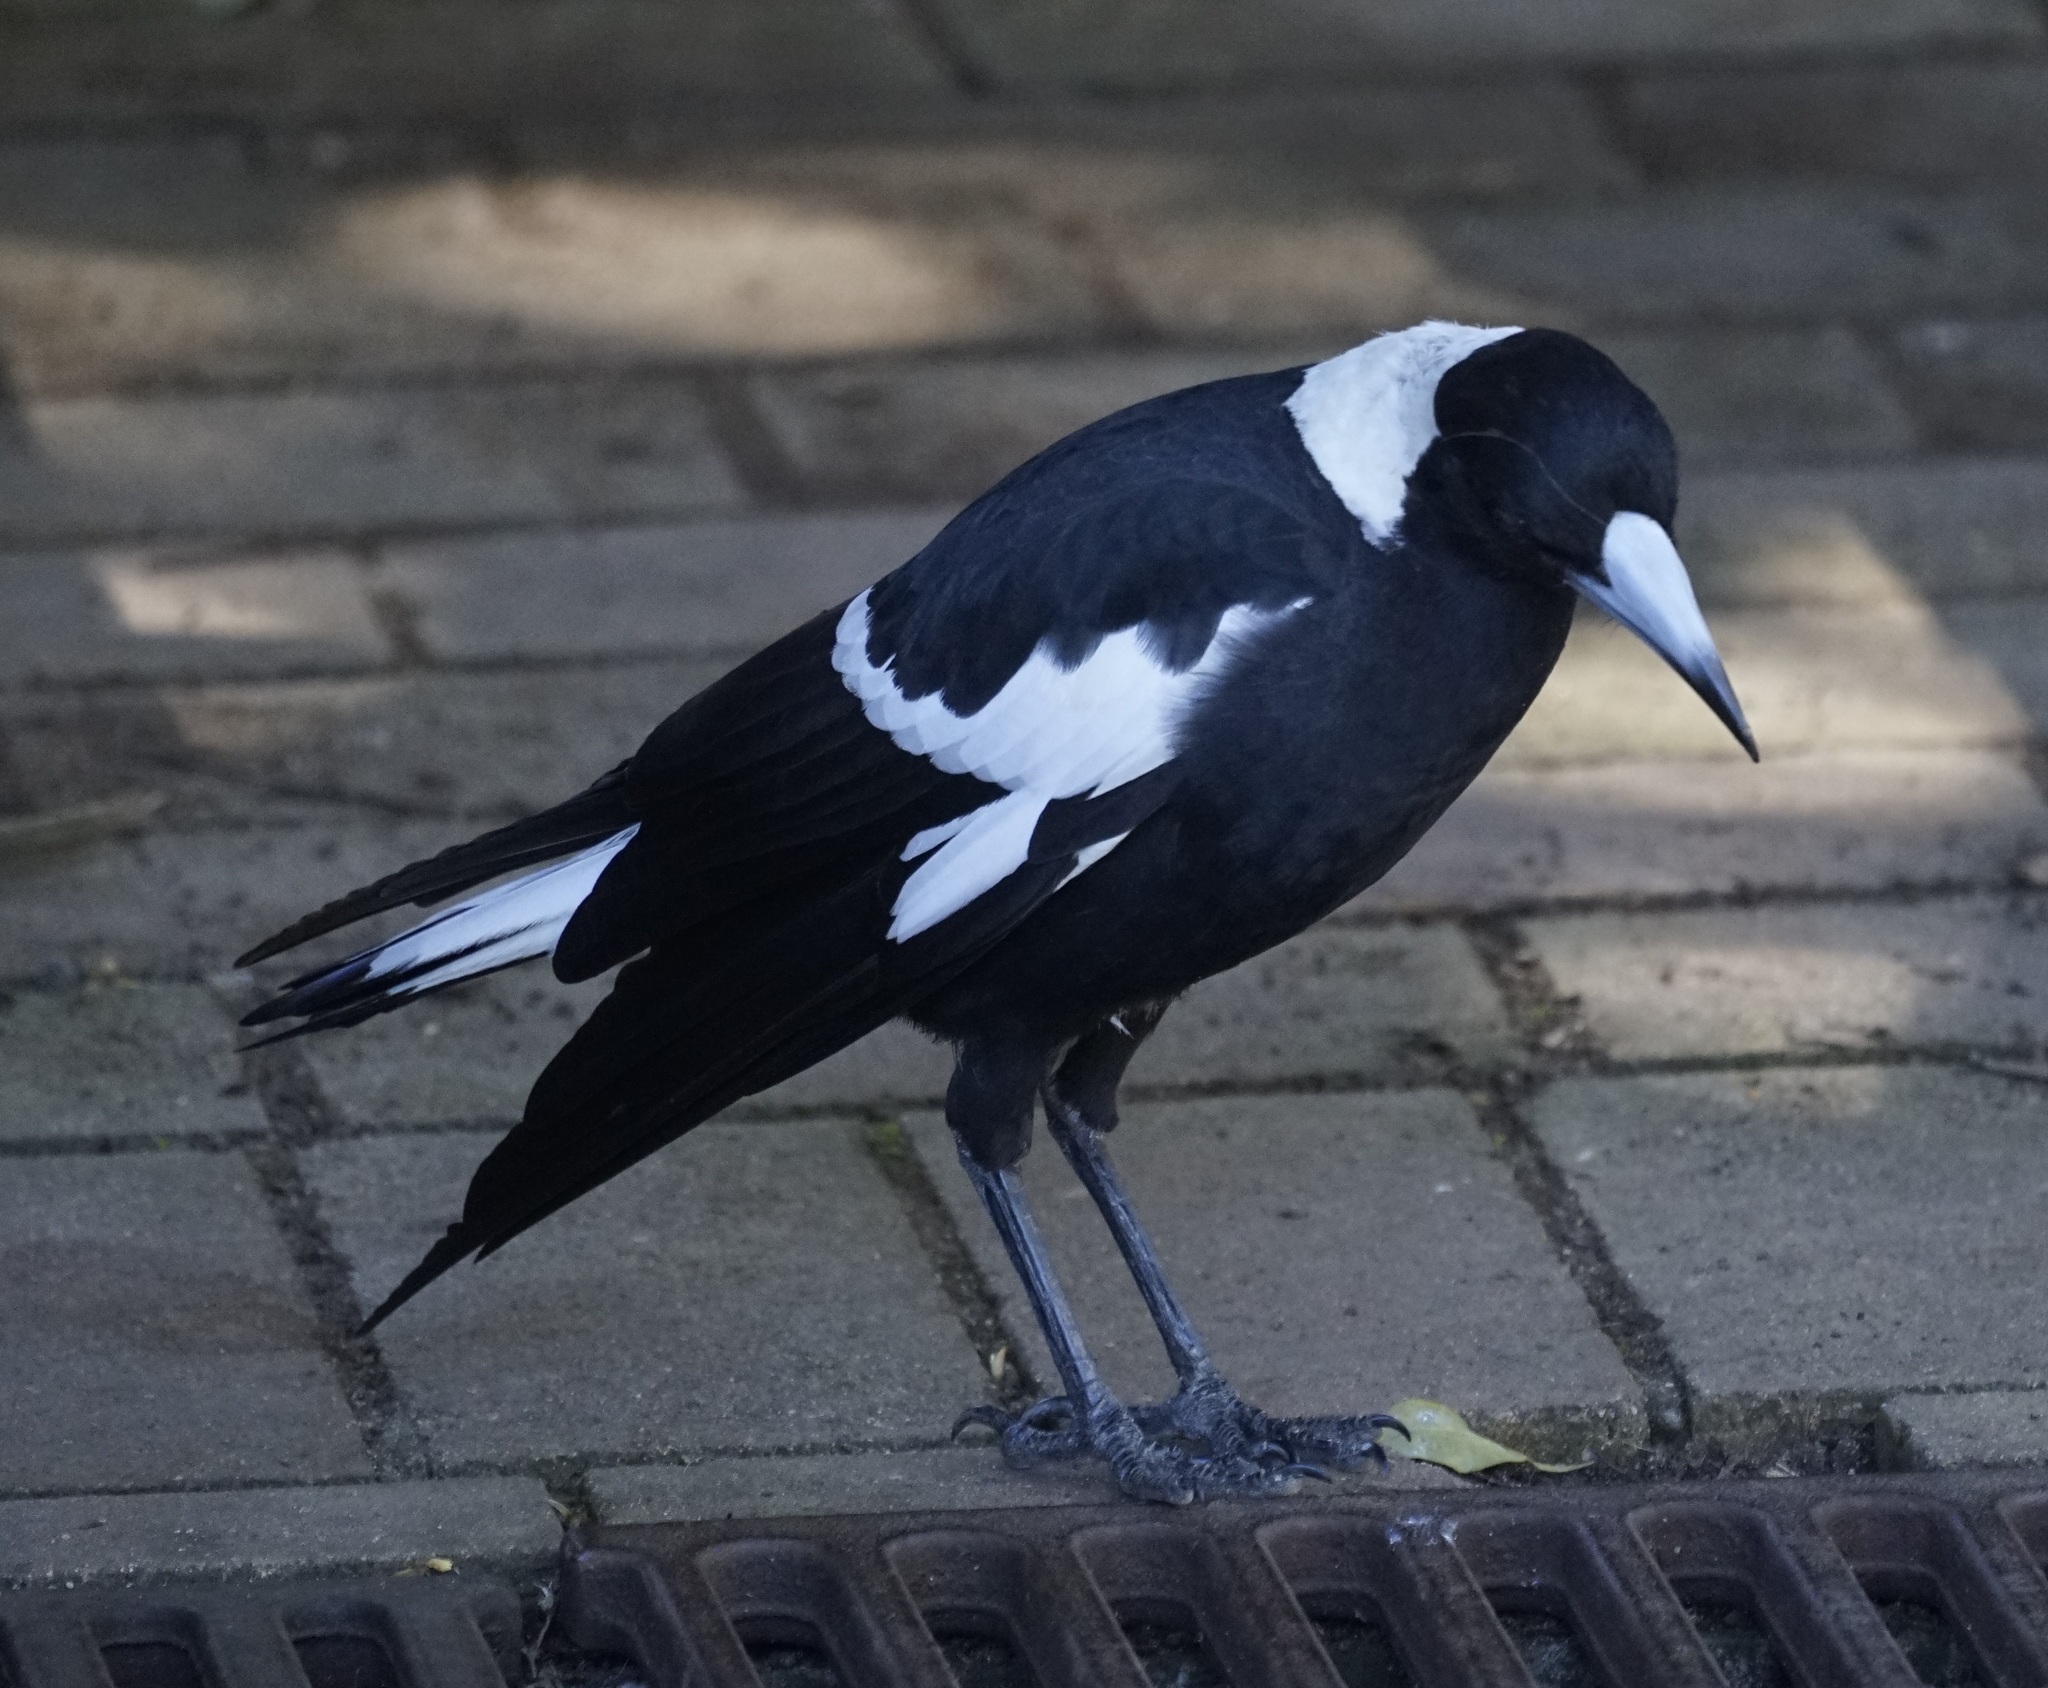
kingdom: Animalia
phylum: Chordata
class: Aves
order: Passeriformes
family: Cracticidae
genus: Gymnorhina
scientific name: Gymnorhina tibicen
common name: Australian magpie
